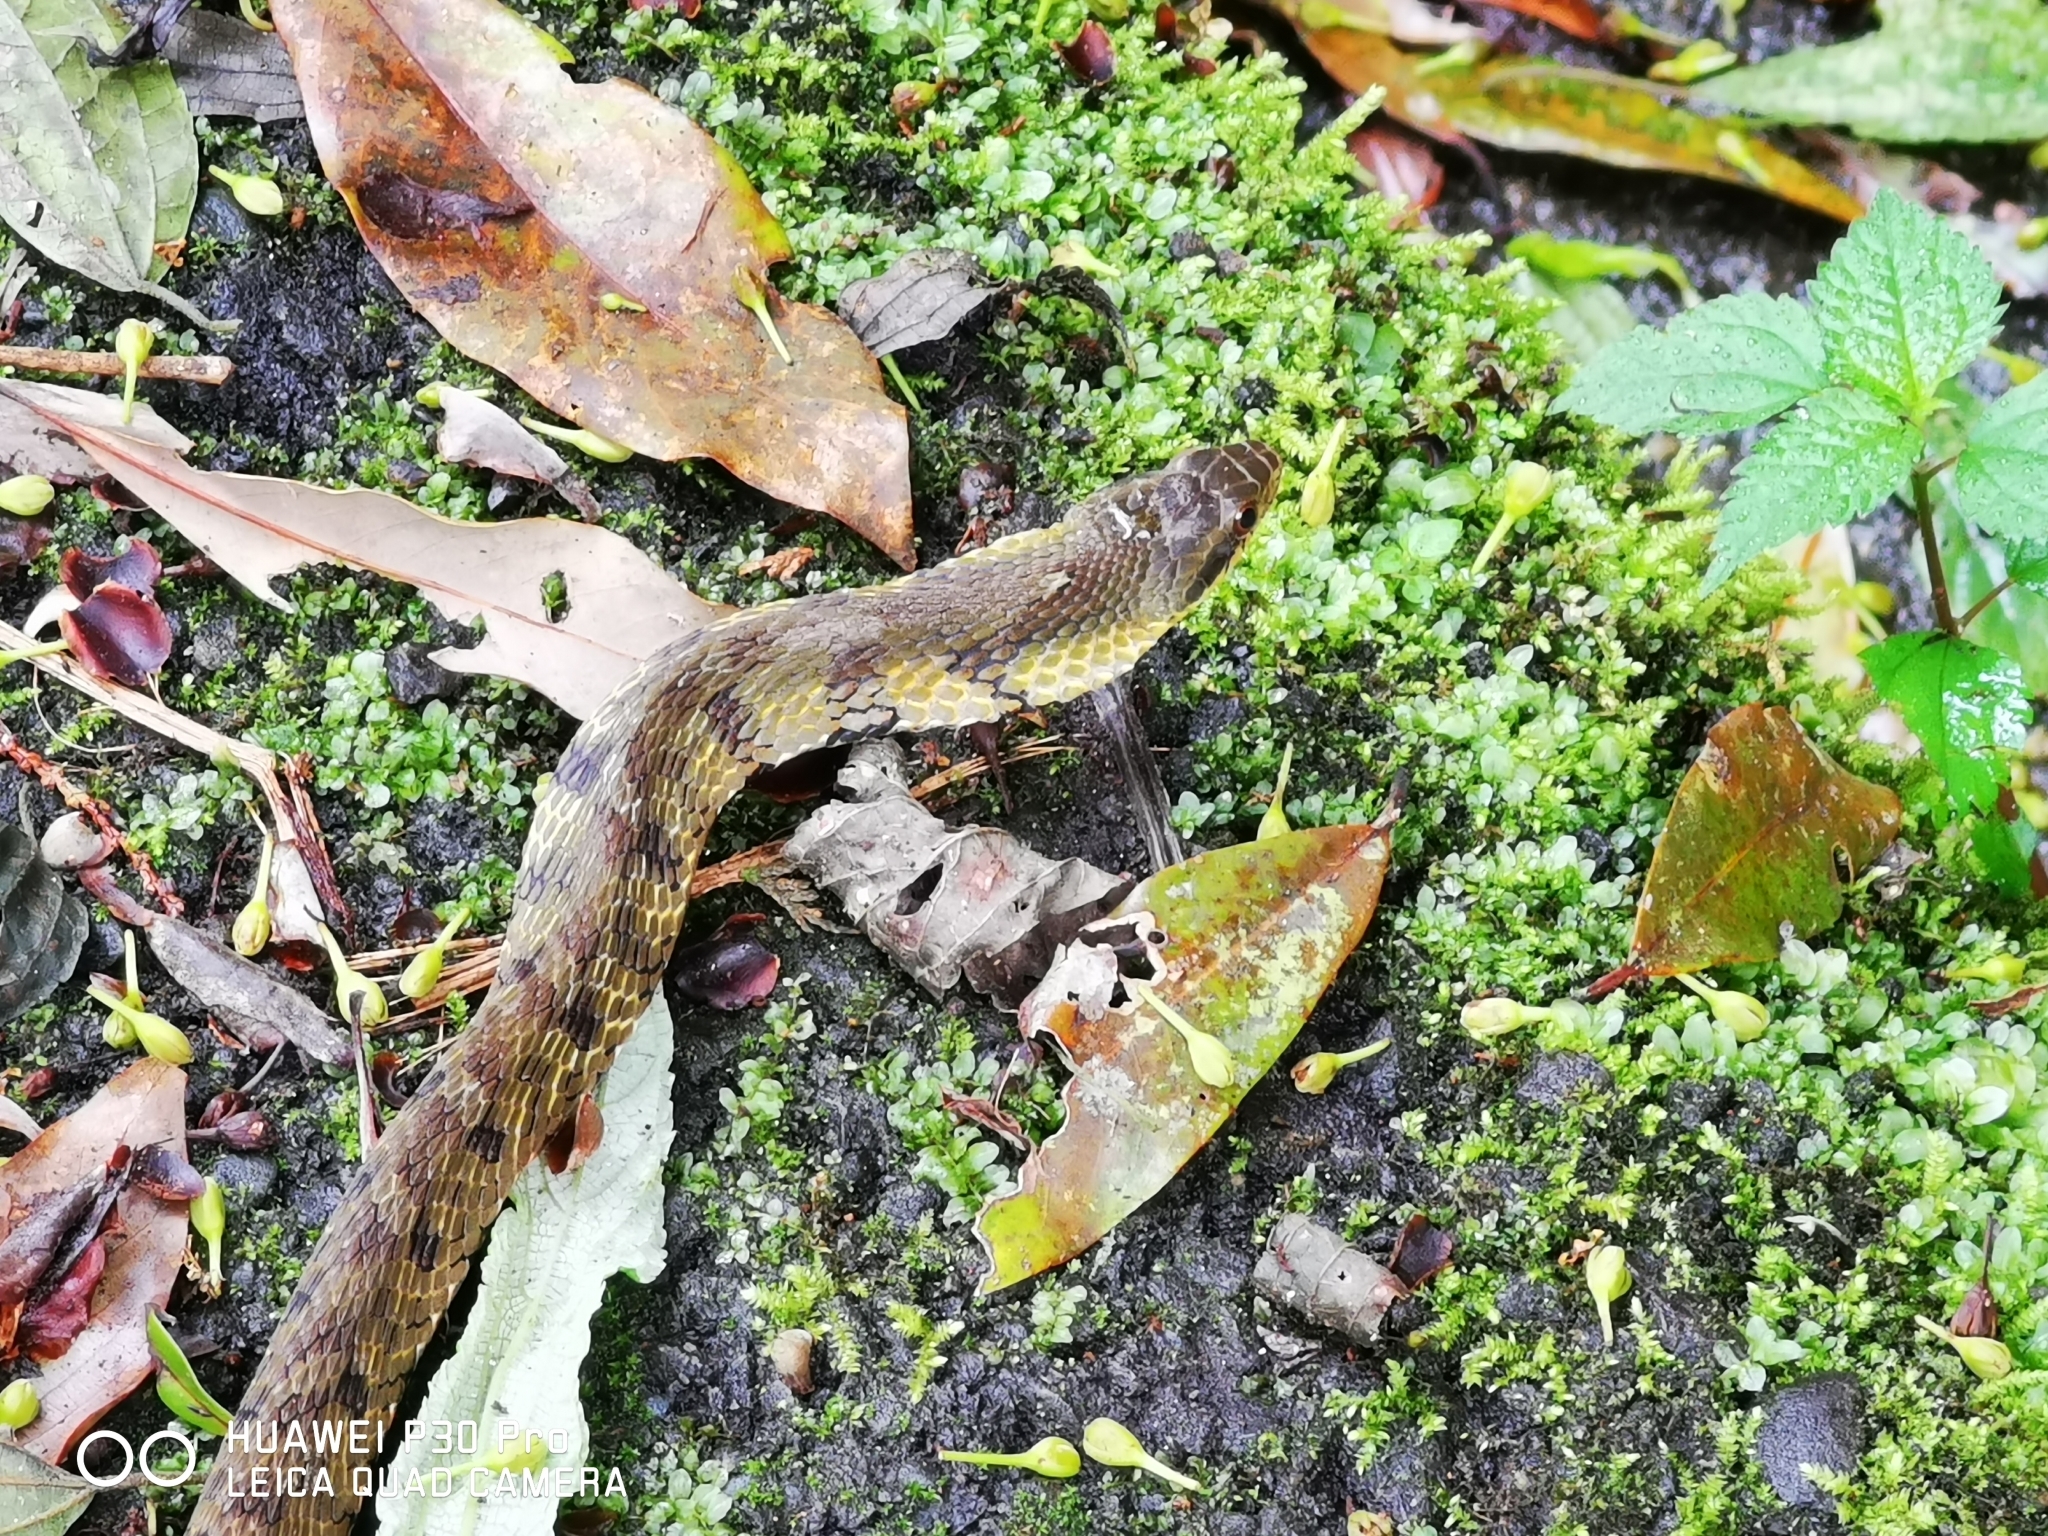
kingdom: Animalia
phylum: Chordata
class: Squamata
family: Colubridae
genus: Pseudoxenodon
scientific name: Pseudoxenodon stejnegeri
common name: Stejneger's bamboo snake
